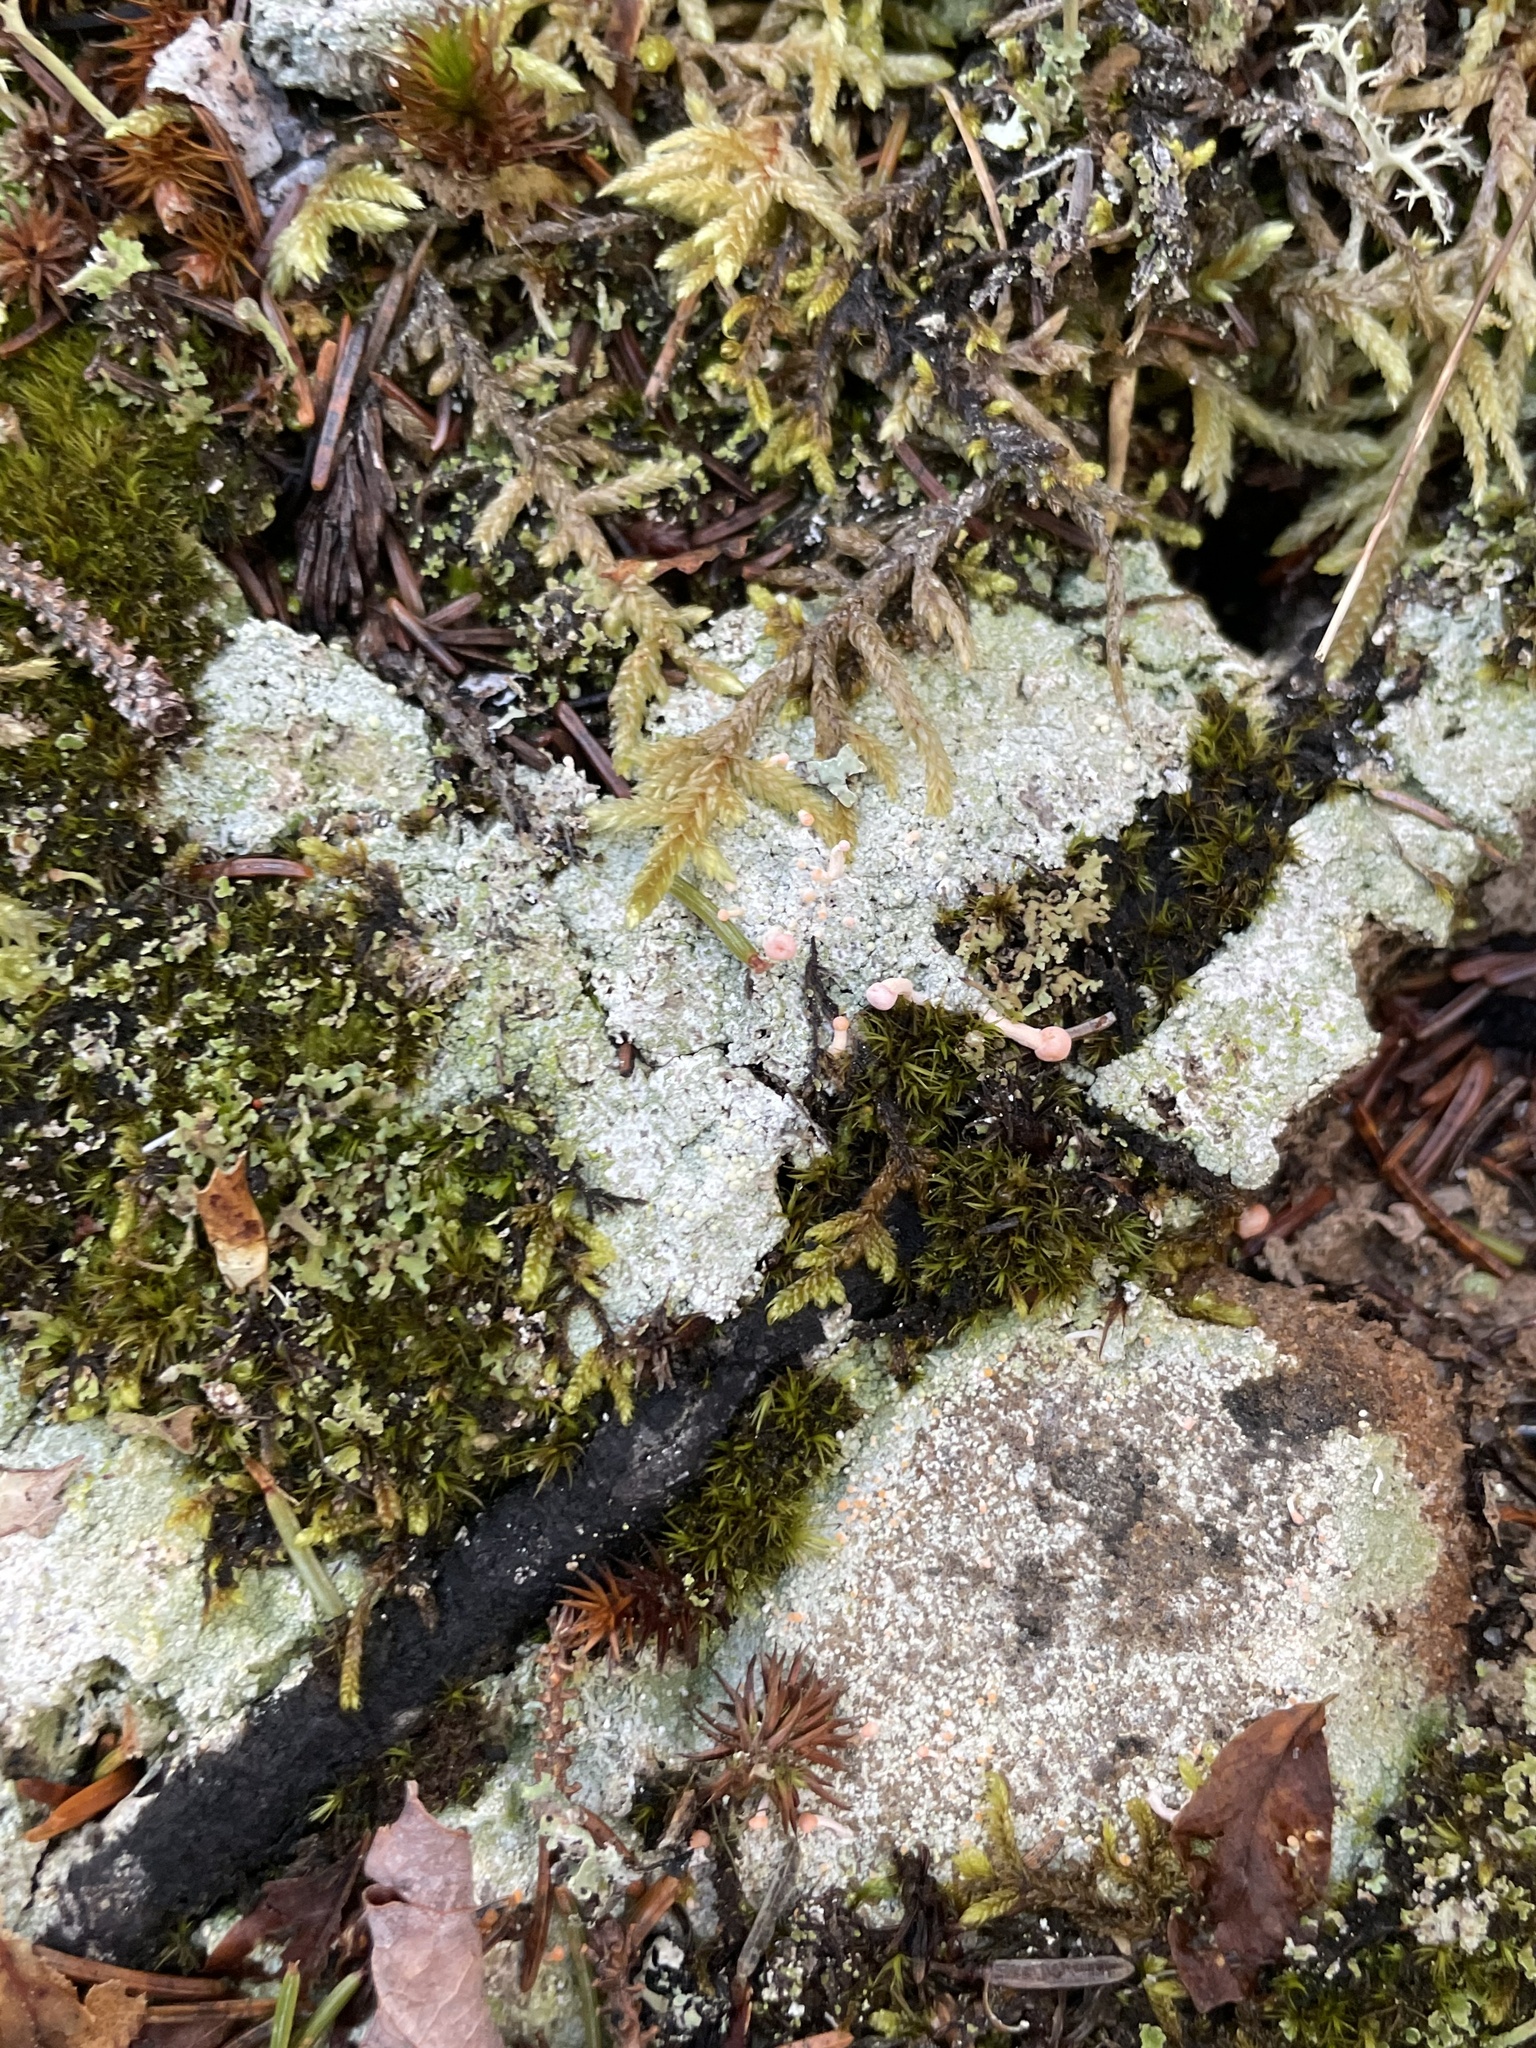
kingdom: Fungi
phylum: Ascomycota
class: Lecanoromycetes
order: Pertusariales
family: Icmadophilaceae
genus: Dibaeis
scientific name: Dibaeis baeomyces
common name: Pink earth lichen
